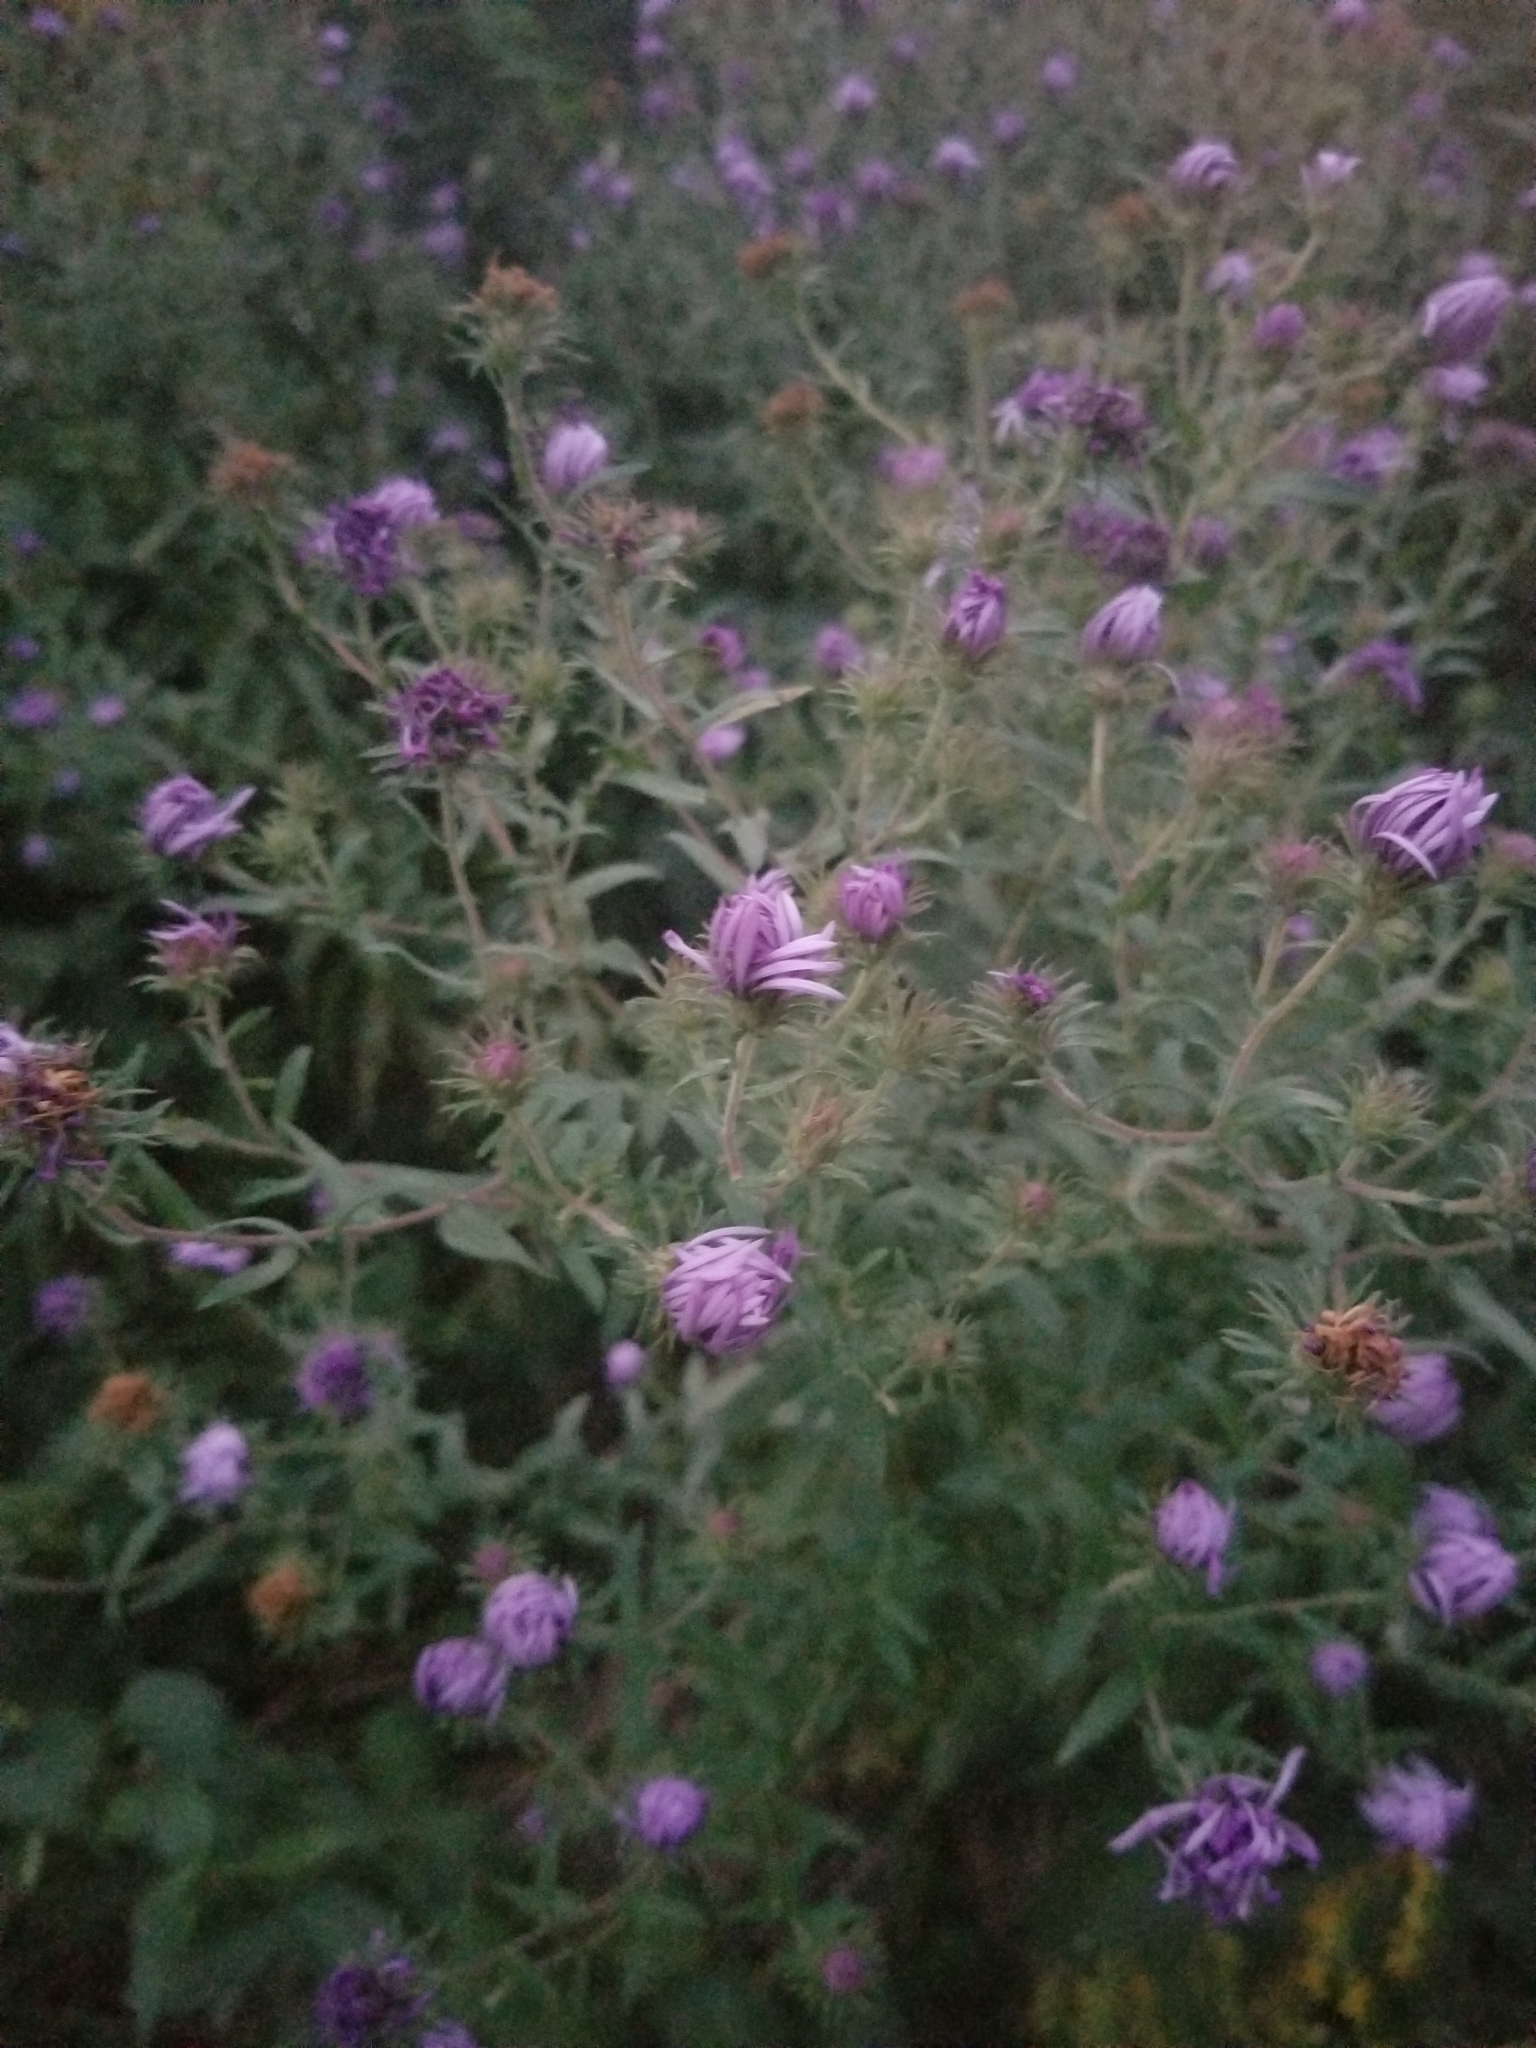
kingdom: Plantae
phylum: Tracheophyta
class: Magnoliopsida
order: Asterales
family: Asteraceae
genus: Symphyotrichum
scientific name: Symphyotrichum novae-angliae
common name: Michaelmas daisy
